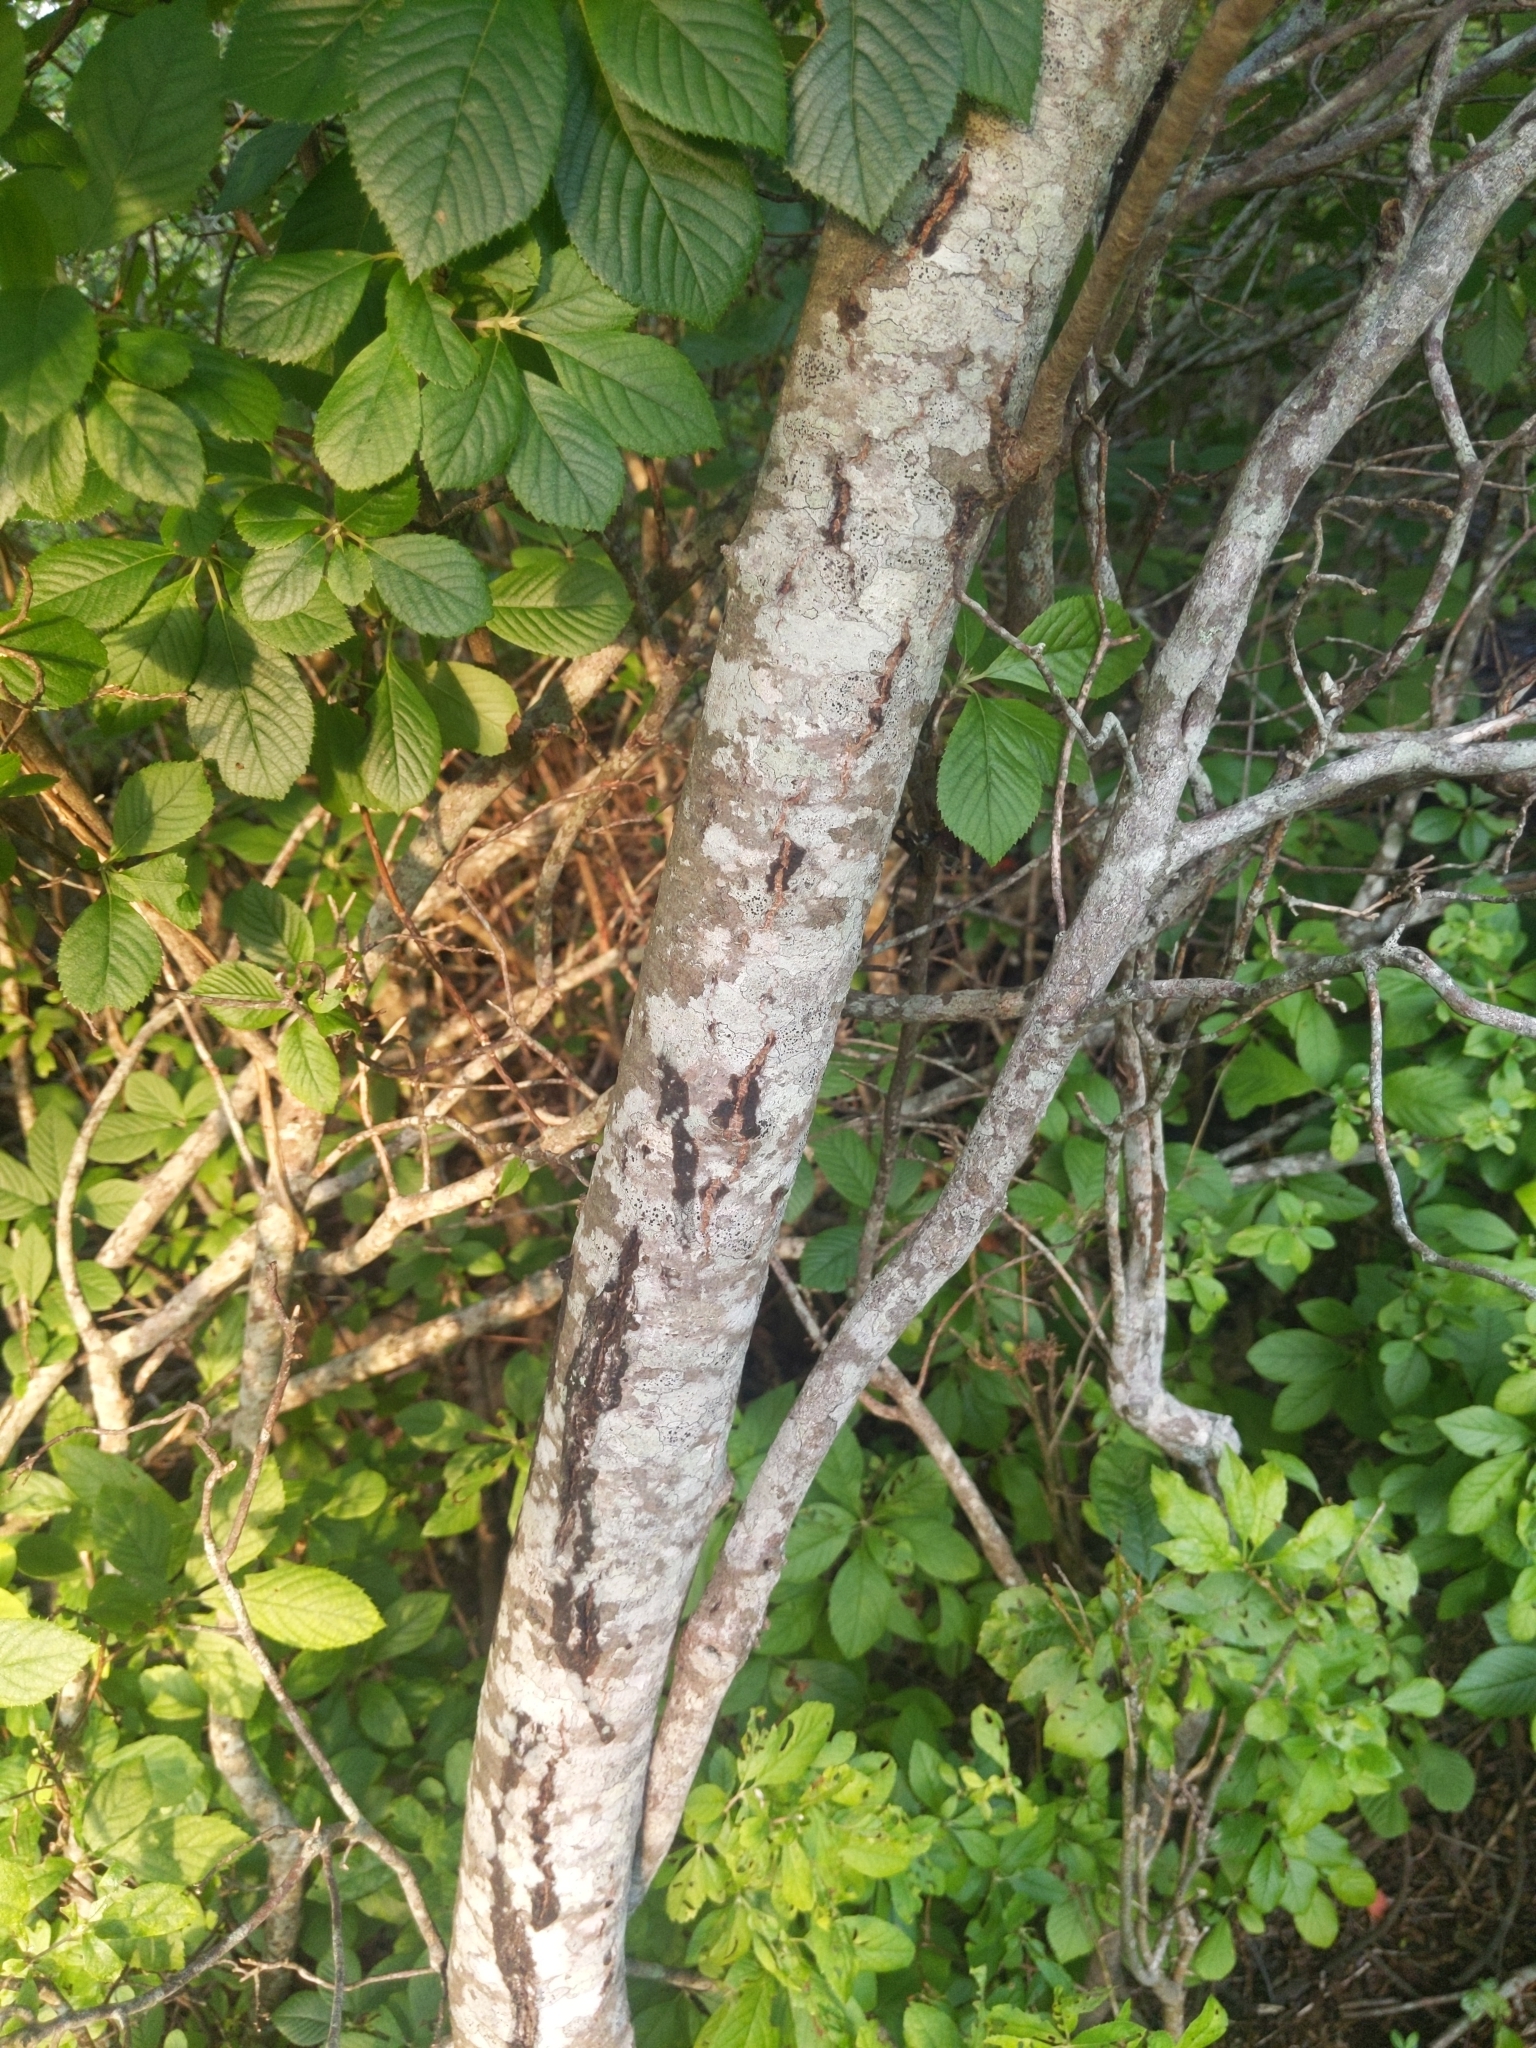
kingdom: Plantae
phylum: Tracheophyta
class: Magnoliopsida
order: Sapindales
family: Anacardiaceae
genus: Toxicodendron
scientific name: Toxicodendron vernix
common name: Poison sumac
